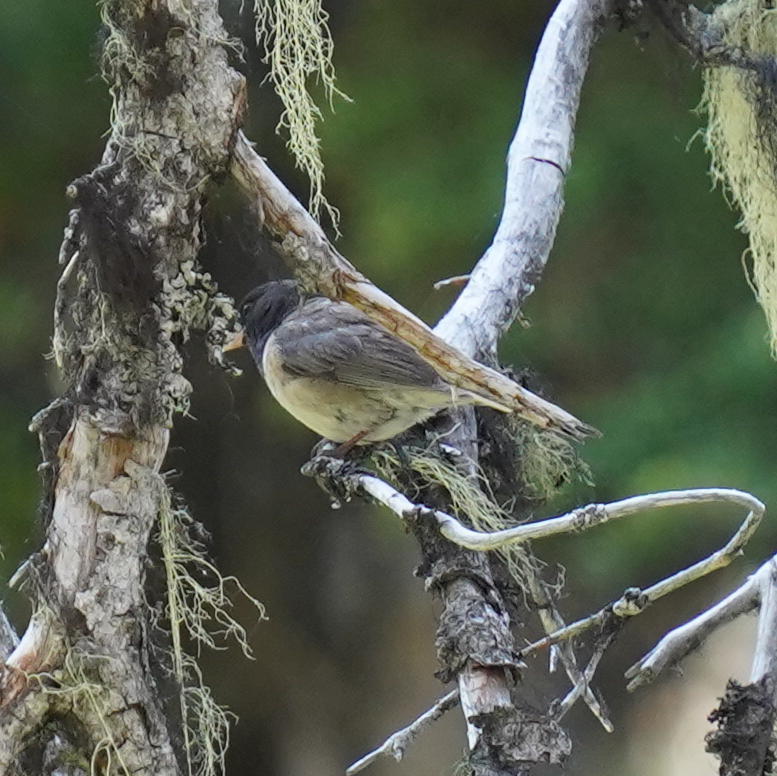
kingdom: Animalia
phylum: Chordata
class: Aves
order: Passeriformes
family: Passerellidae
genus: Junco
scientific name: Junco hyemalis
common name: Dark-eyed junco
